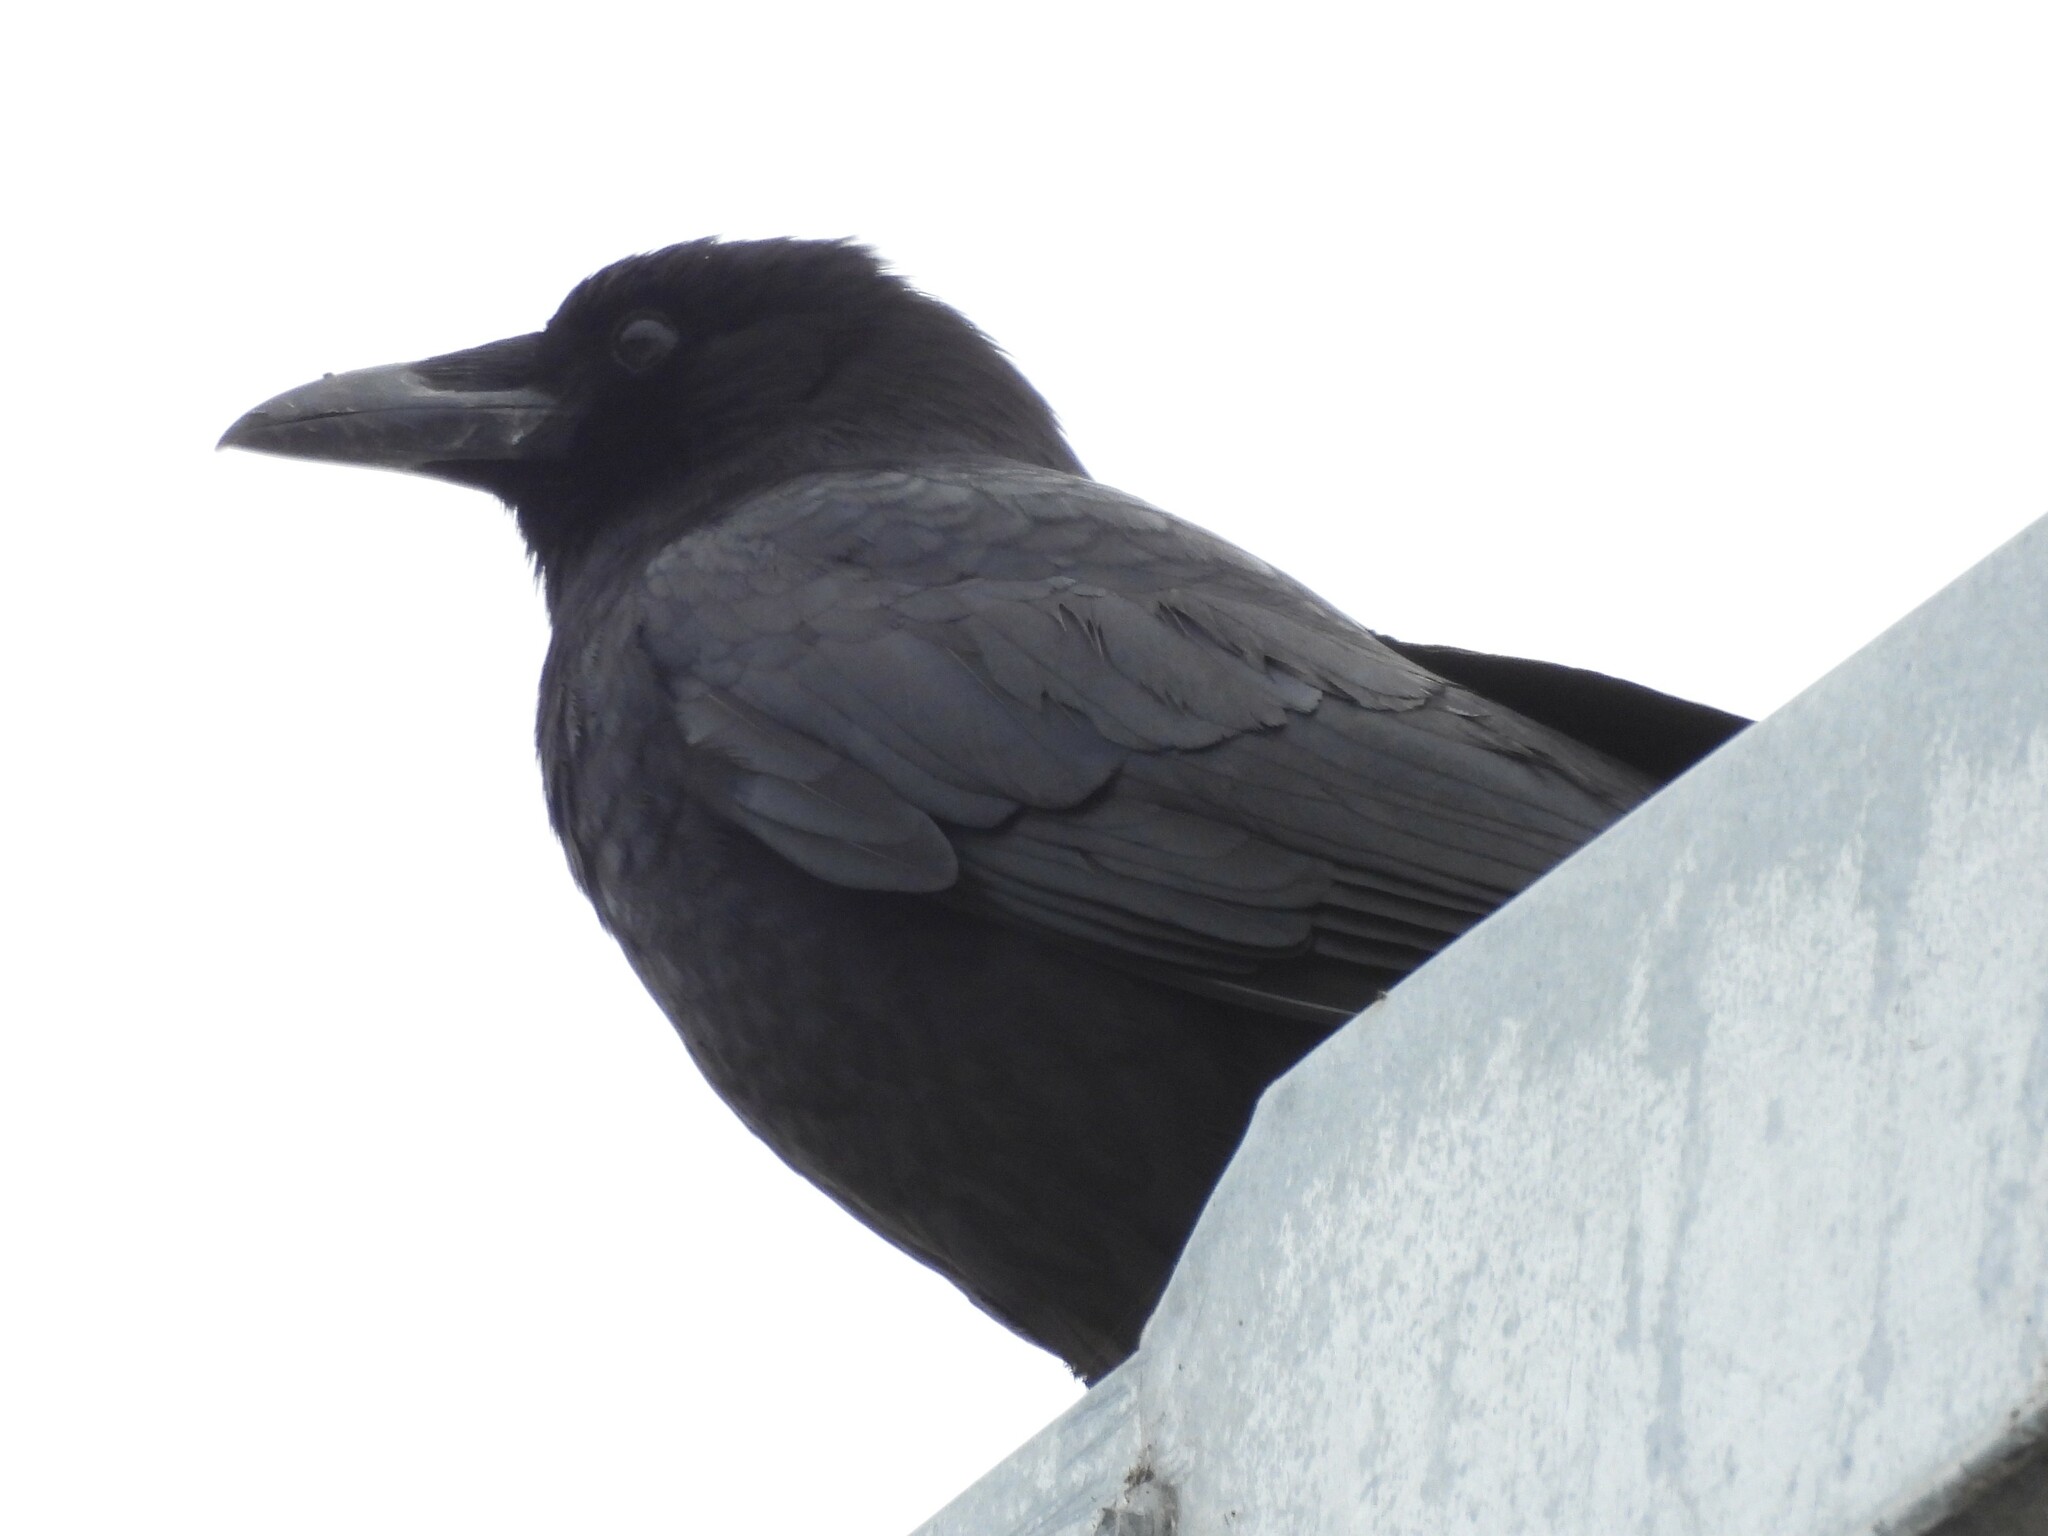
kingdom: Animalia
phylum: Chordata
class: Aves
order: Passeriformes
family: Corvidae
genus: Corvus
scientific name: Corvus brachyrhynchos
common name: American crow
